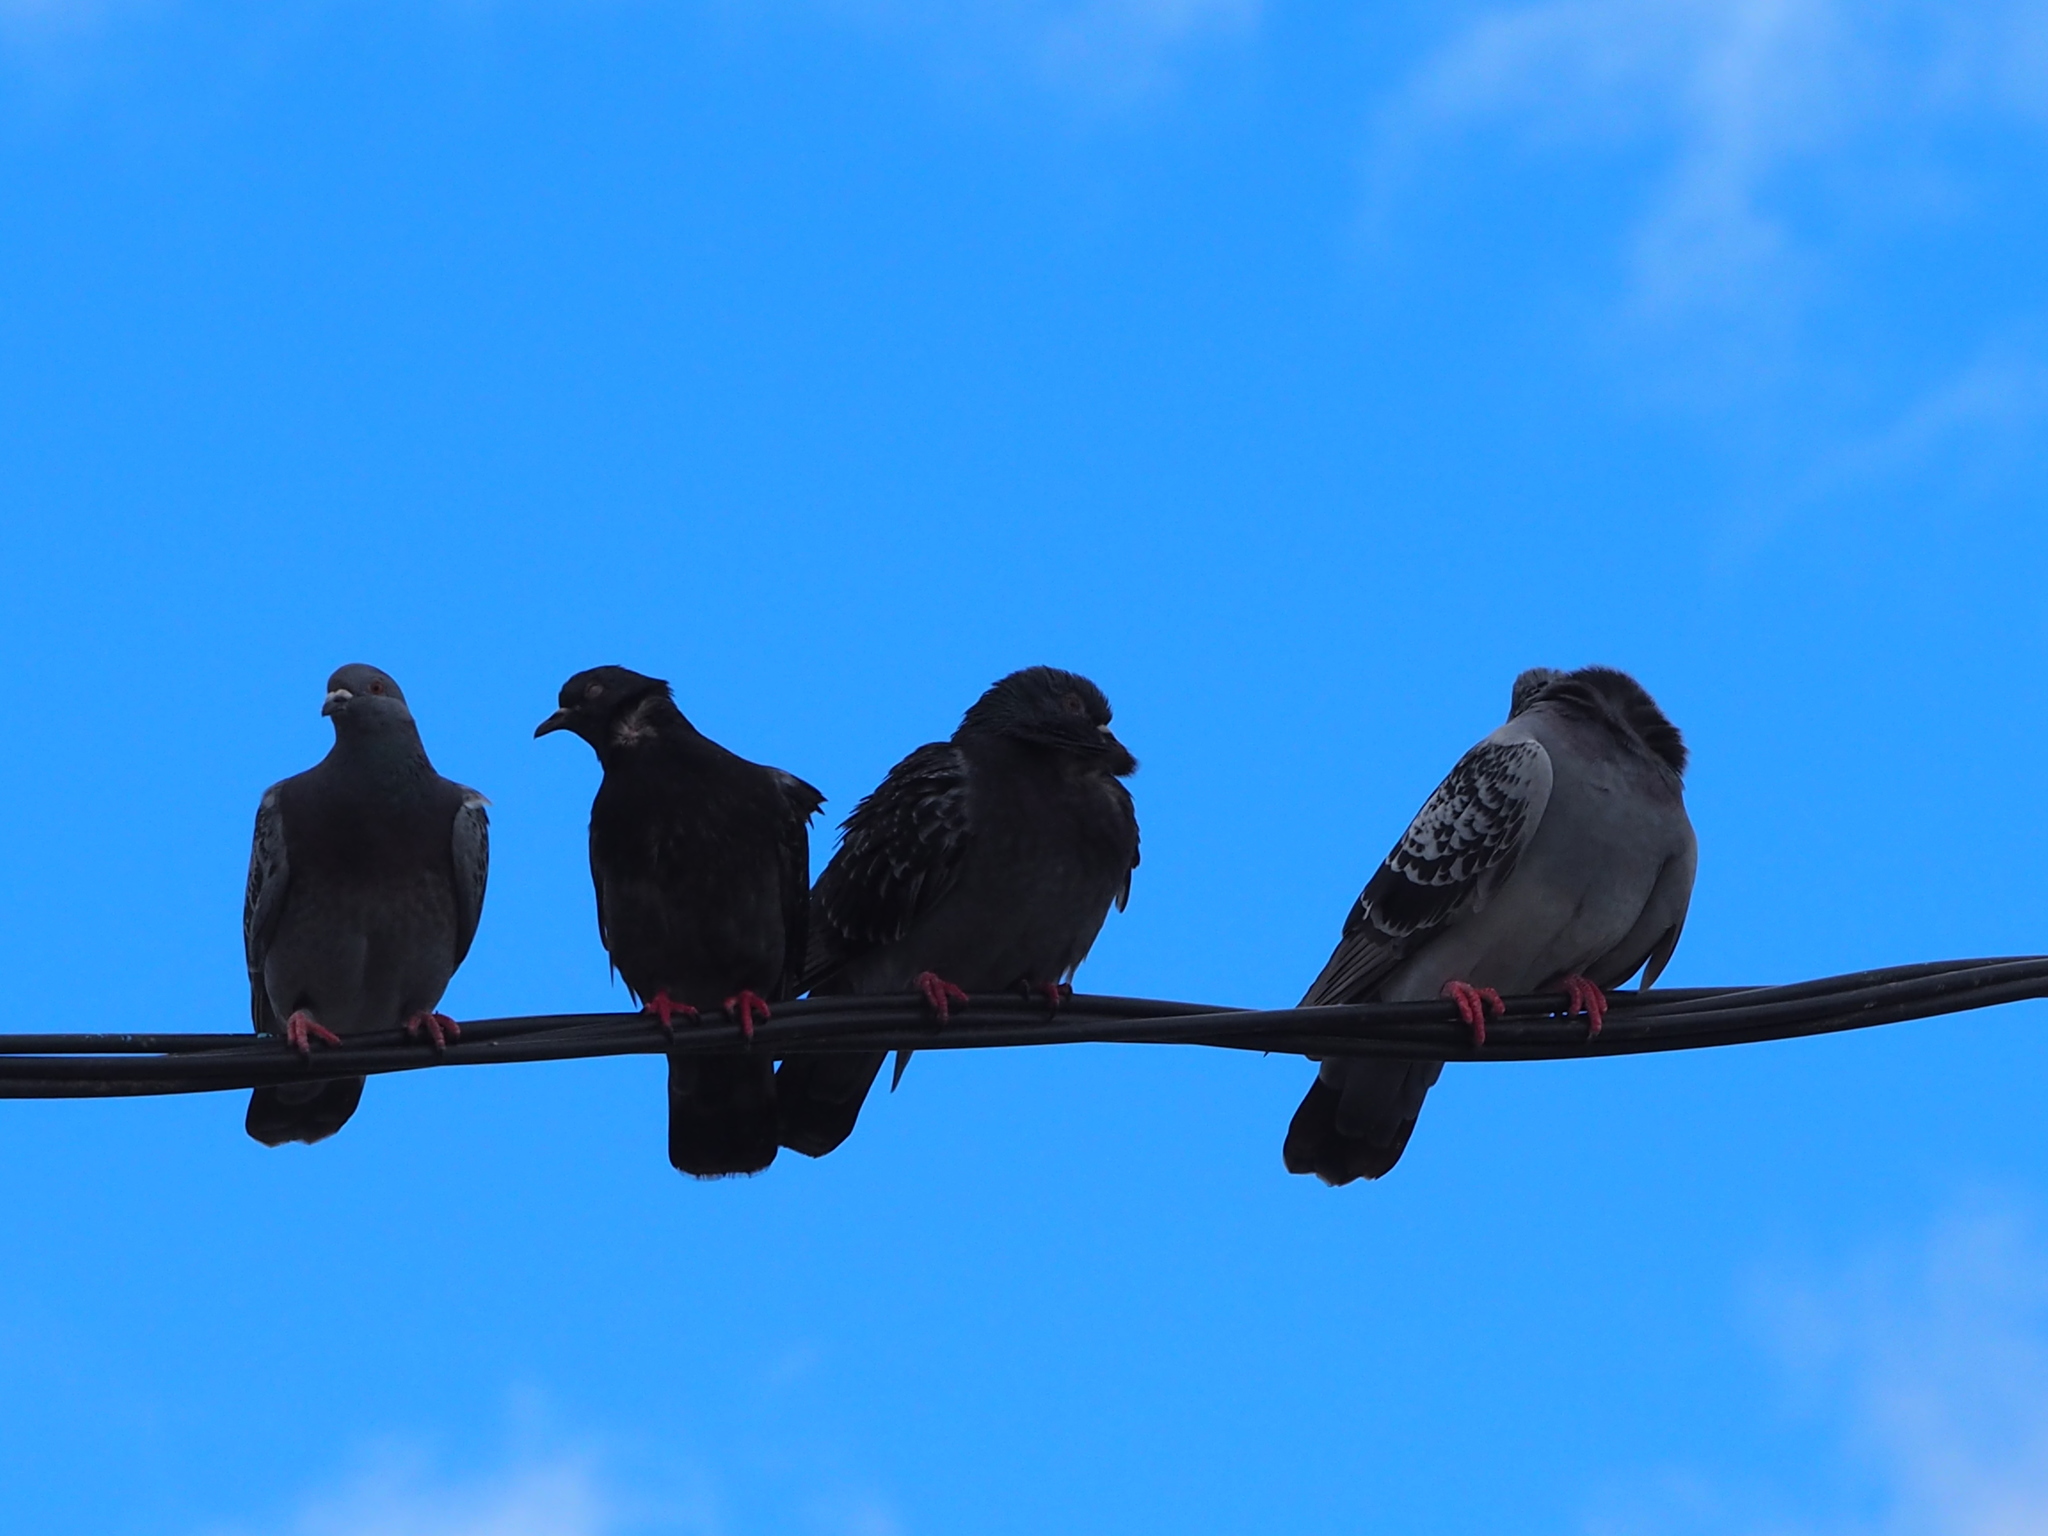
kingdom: Animalia
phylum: Chordata
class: Aves
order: Columbiformes
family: Columbidae
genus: Columba
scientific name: Columba livia
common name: Rock pigeon
